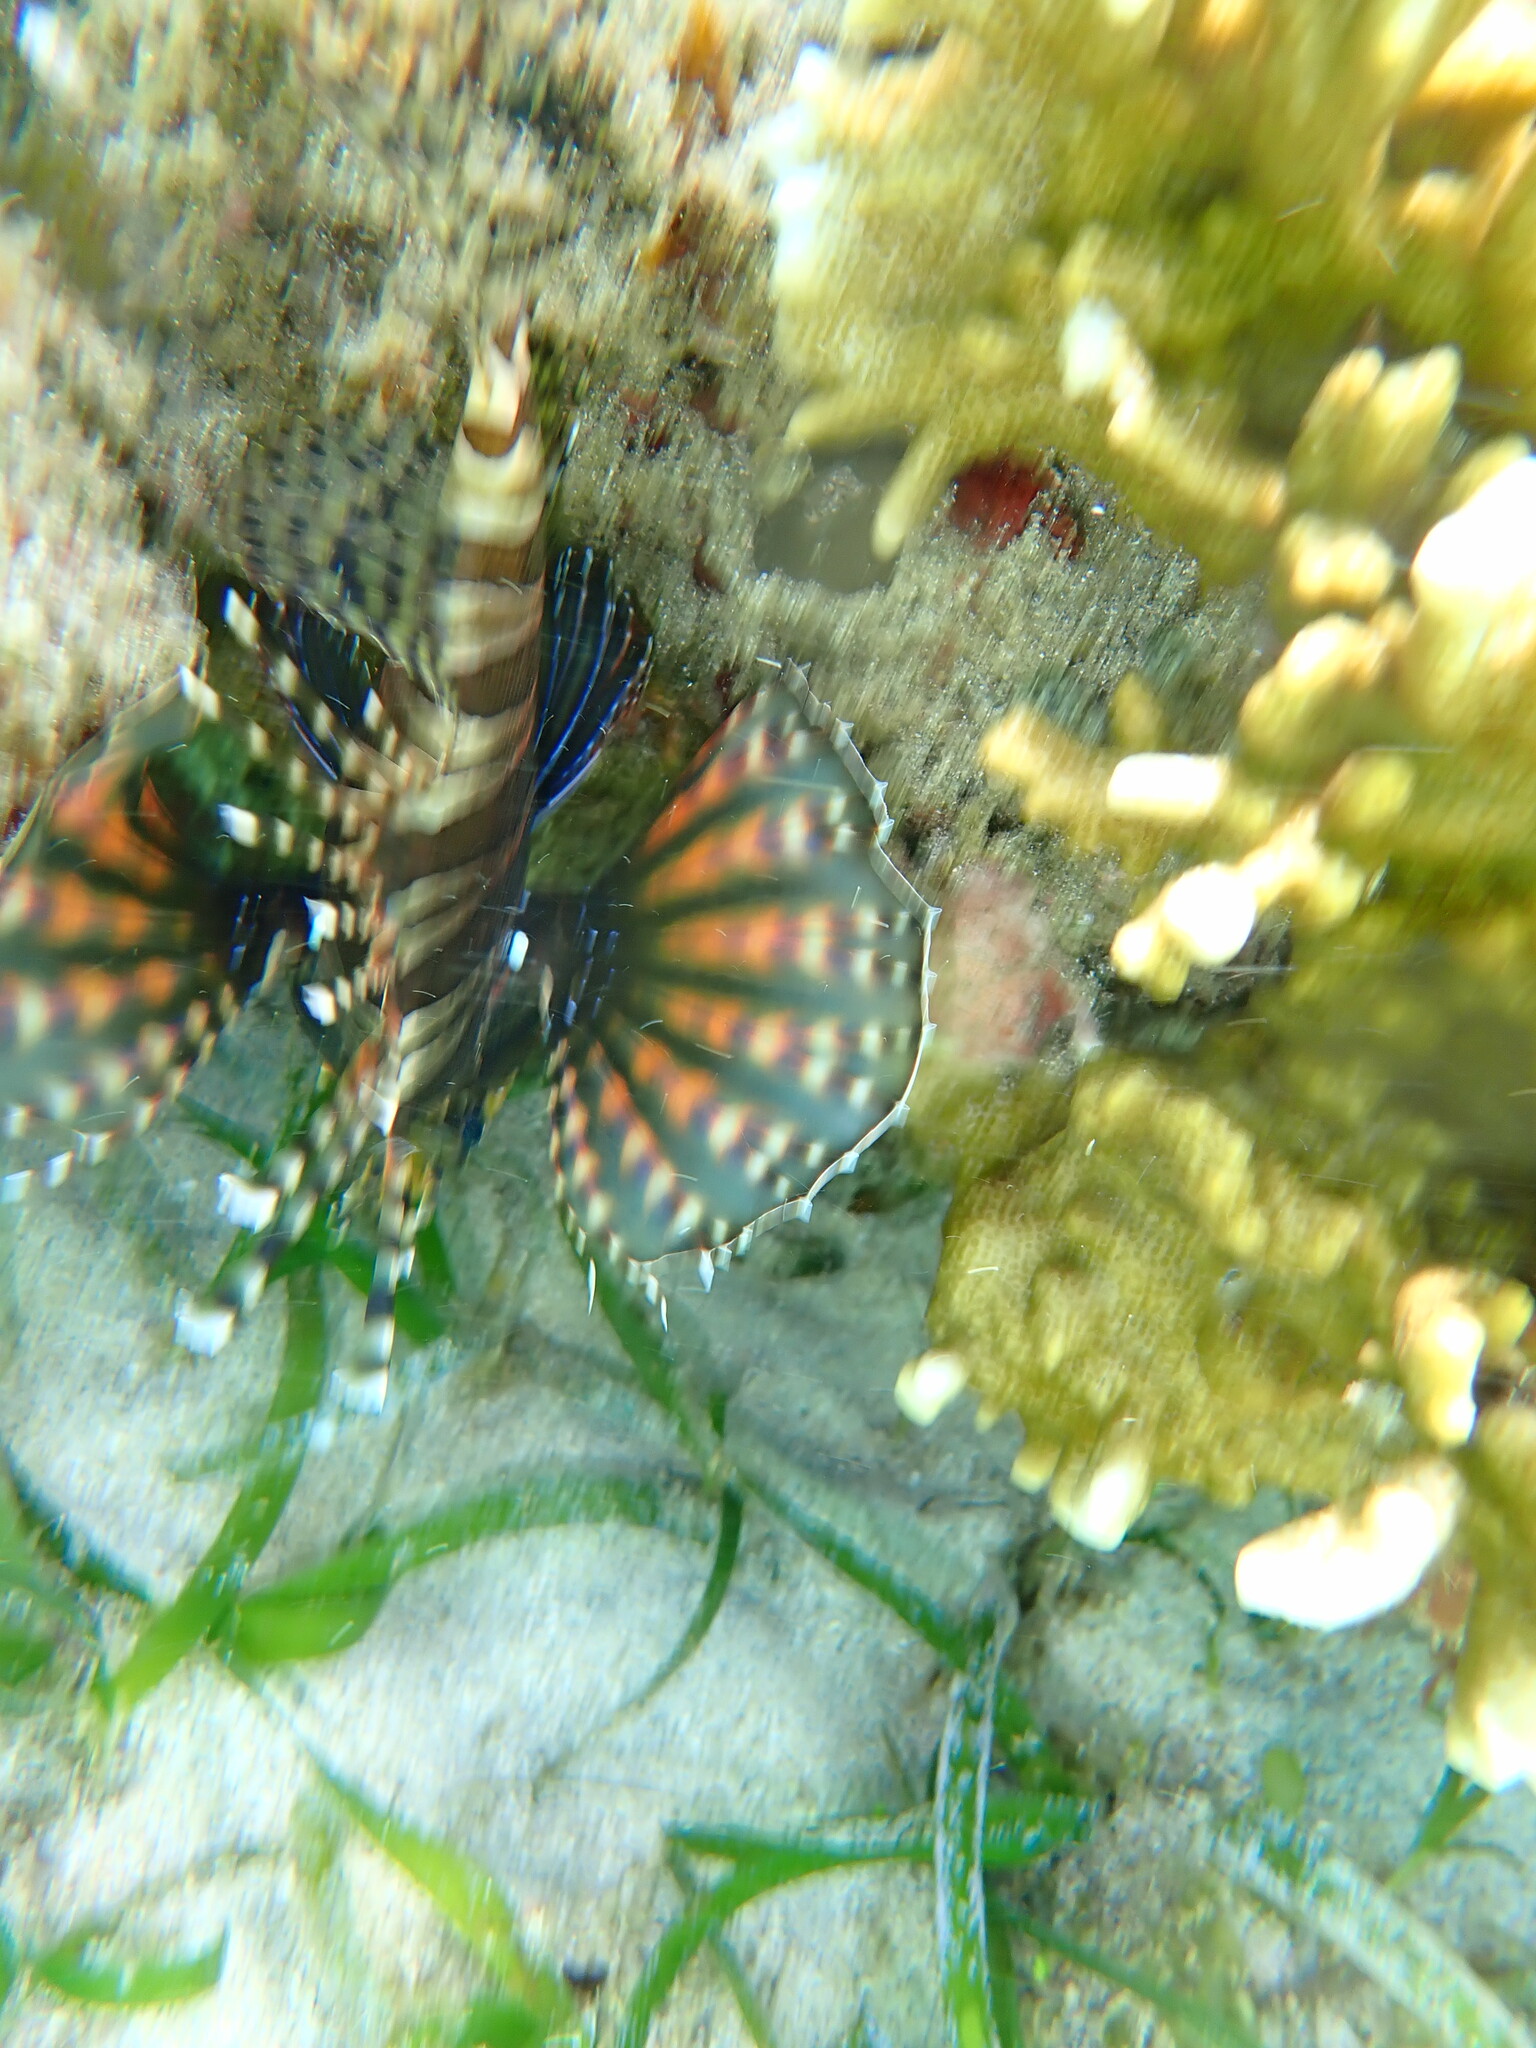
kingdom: Animalia
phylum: Chordata
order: Scorpaeniformes
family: Scorpaenidae
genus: Dendrochirus
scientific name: Dendrochirus zebra
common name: Zebra lionfish
